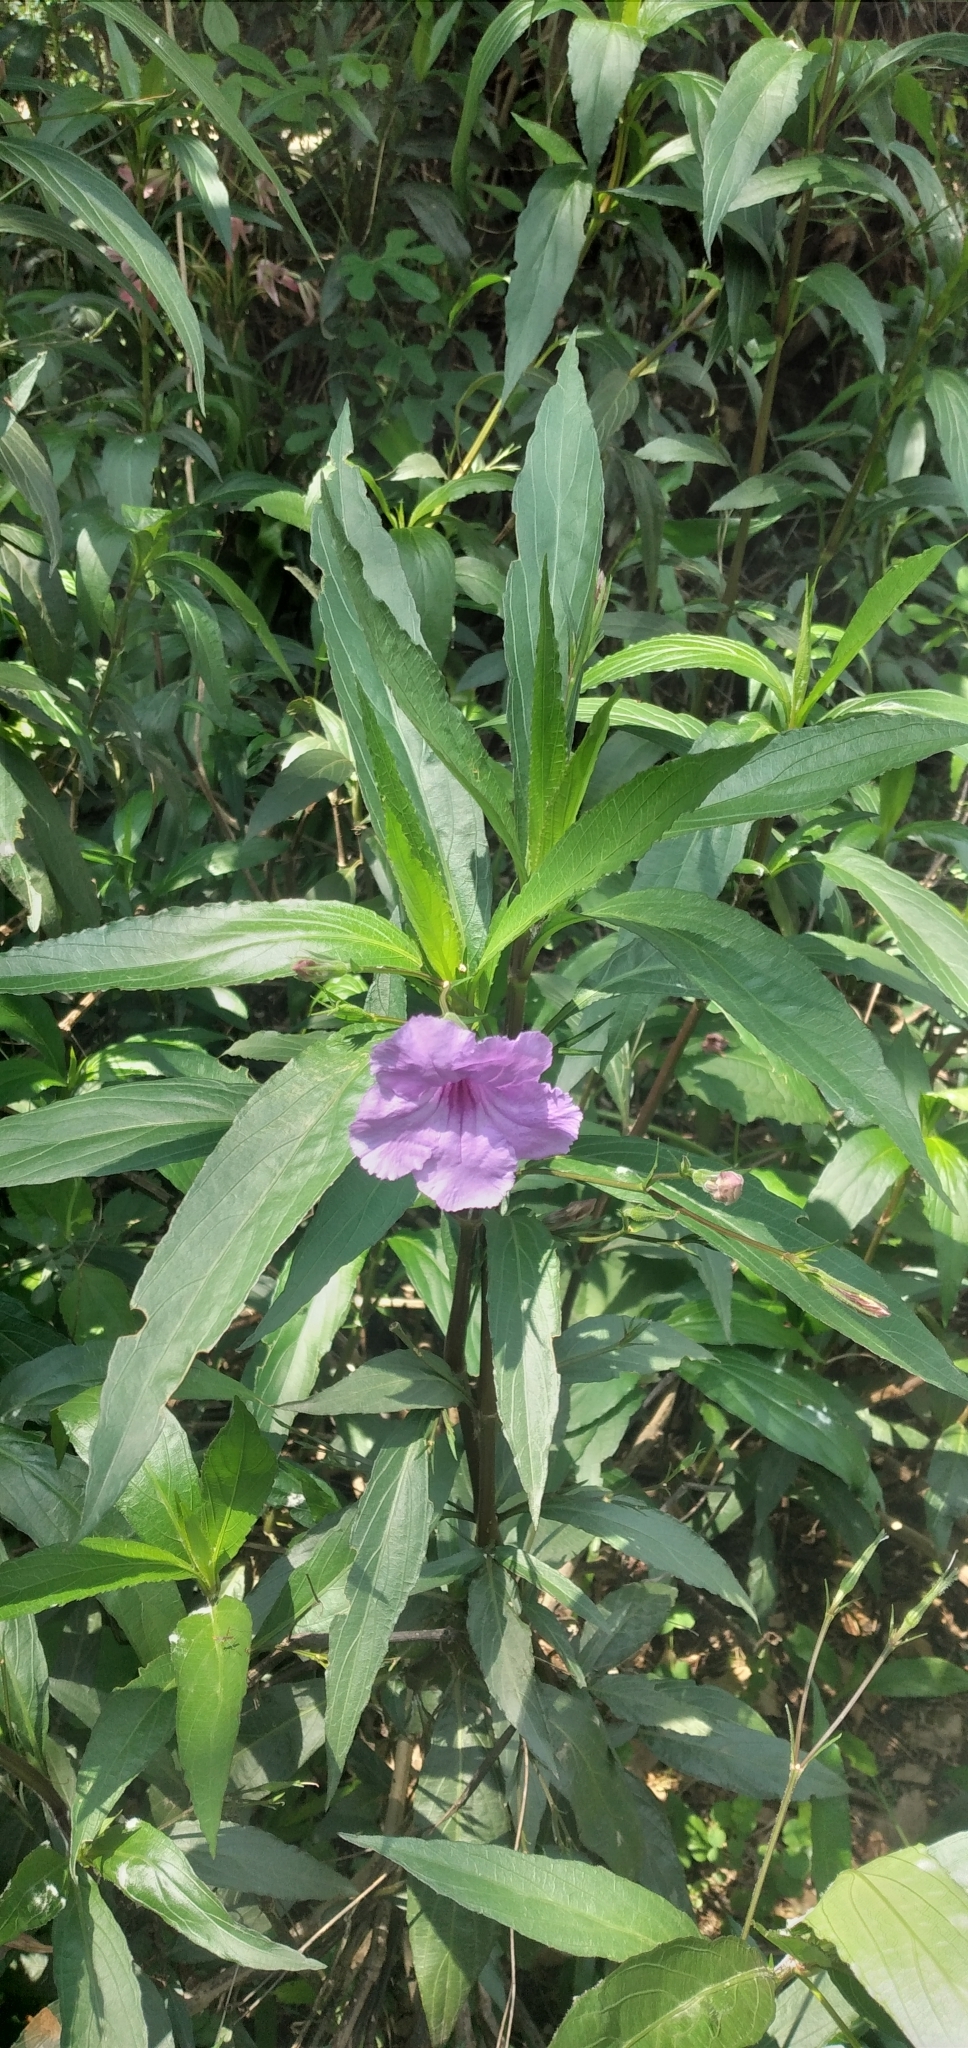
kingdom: Plantae
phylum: Tracheophyta
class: Magnoliopsida
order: Lamiales
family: Acanthaceae
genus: Ruellia
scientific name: Ruellia simplex
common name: Softseed wild petunia
